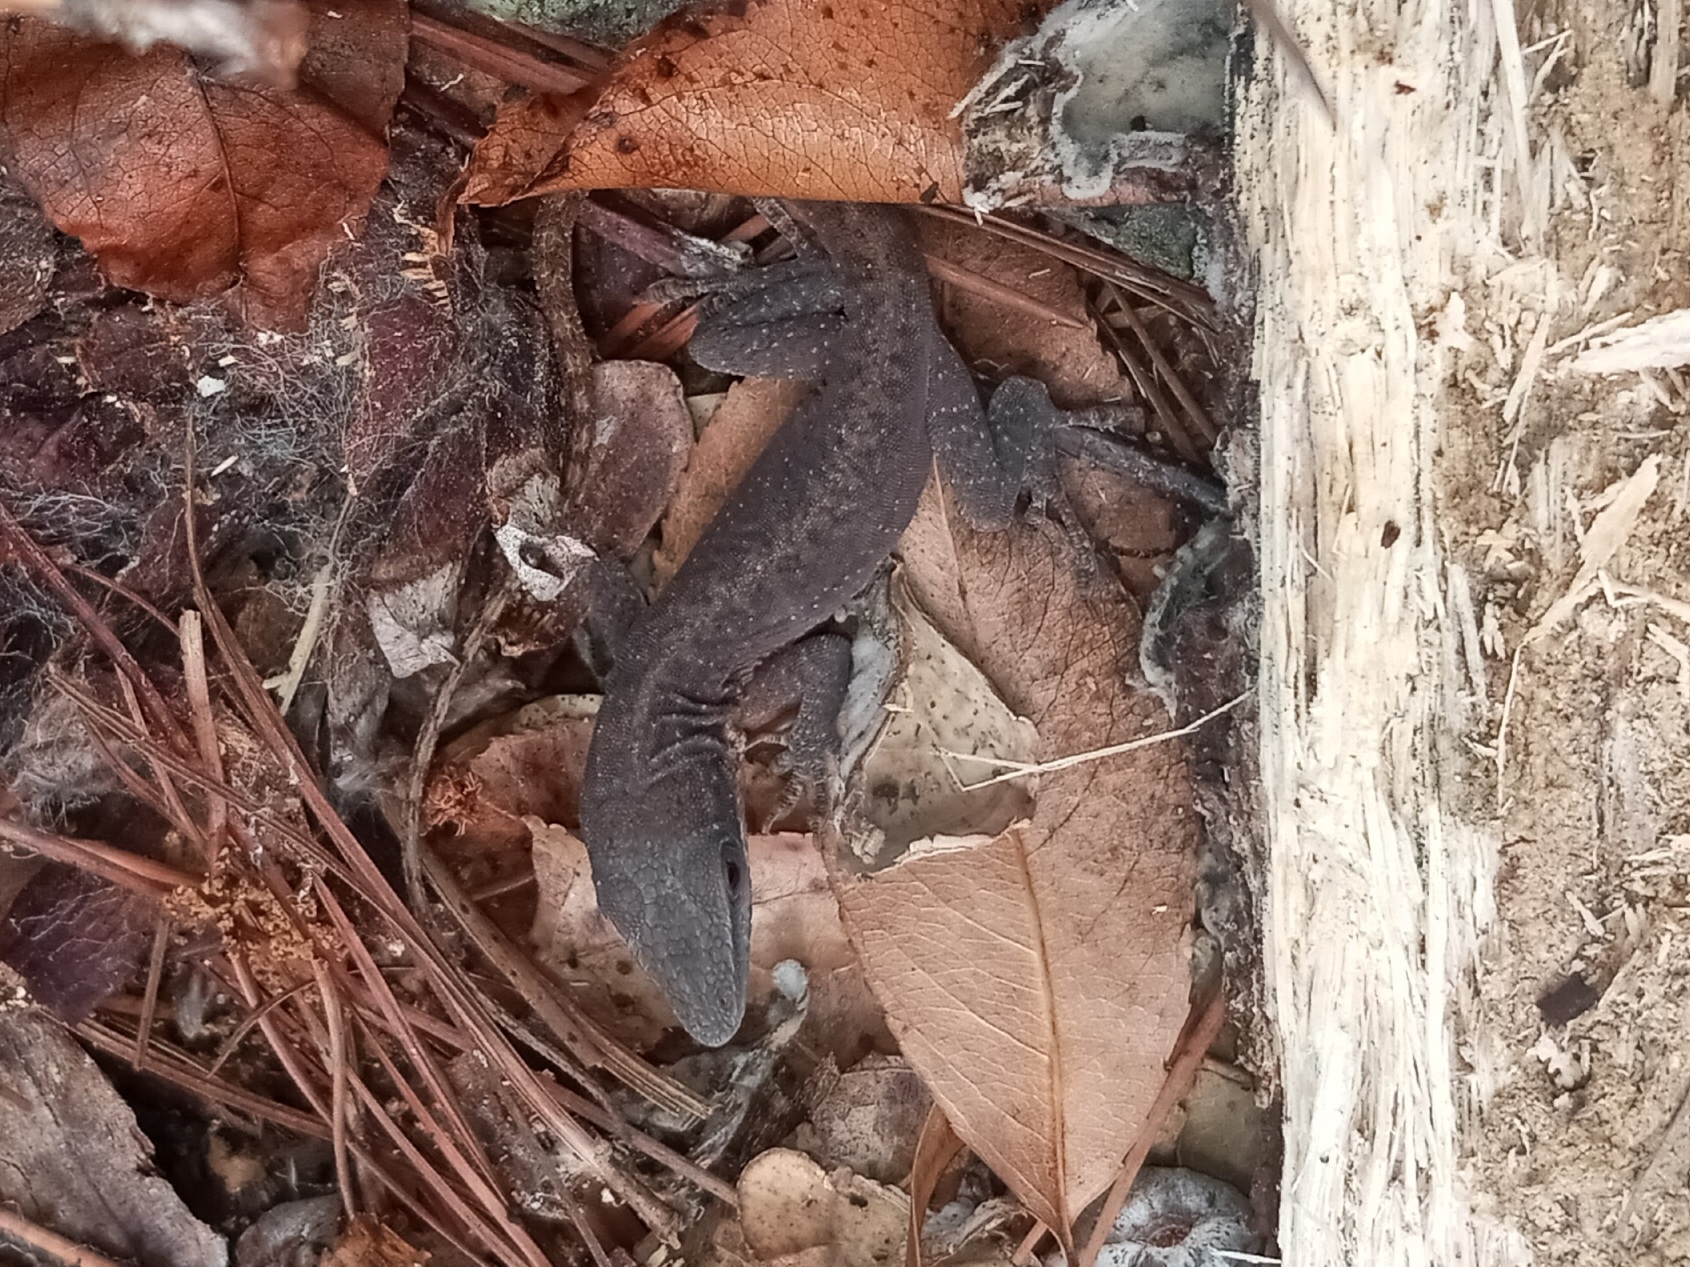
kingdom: Animalia
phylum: Chordata
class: Squamata
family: Dactyloidae
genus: Anolis
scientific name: Anolis carolinensis
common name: Green anole
